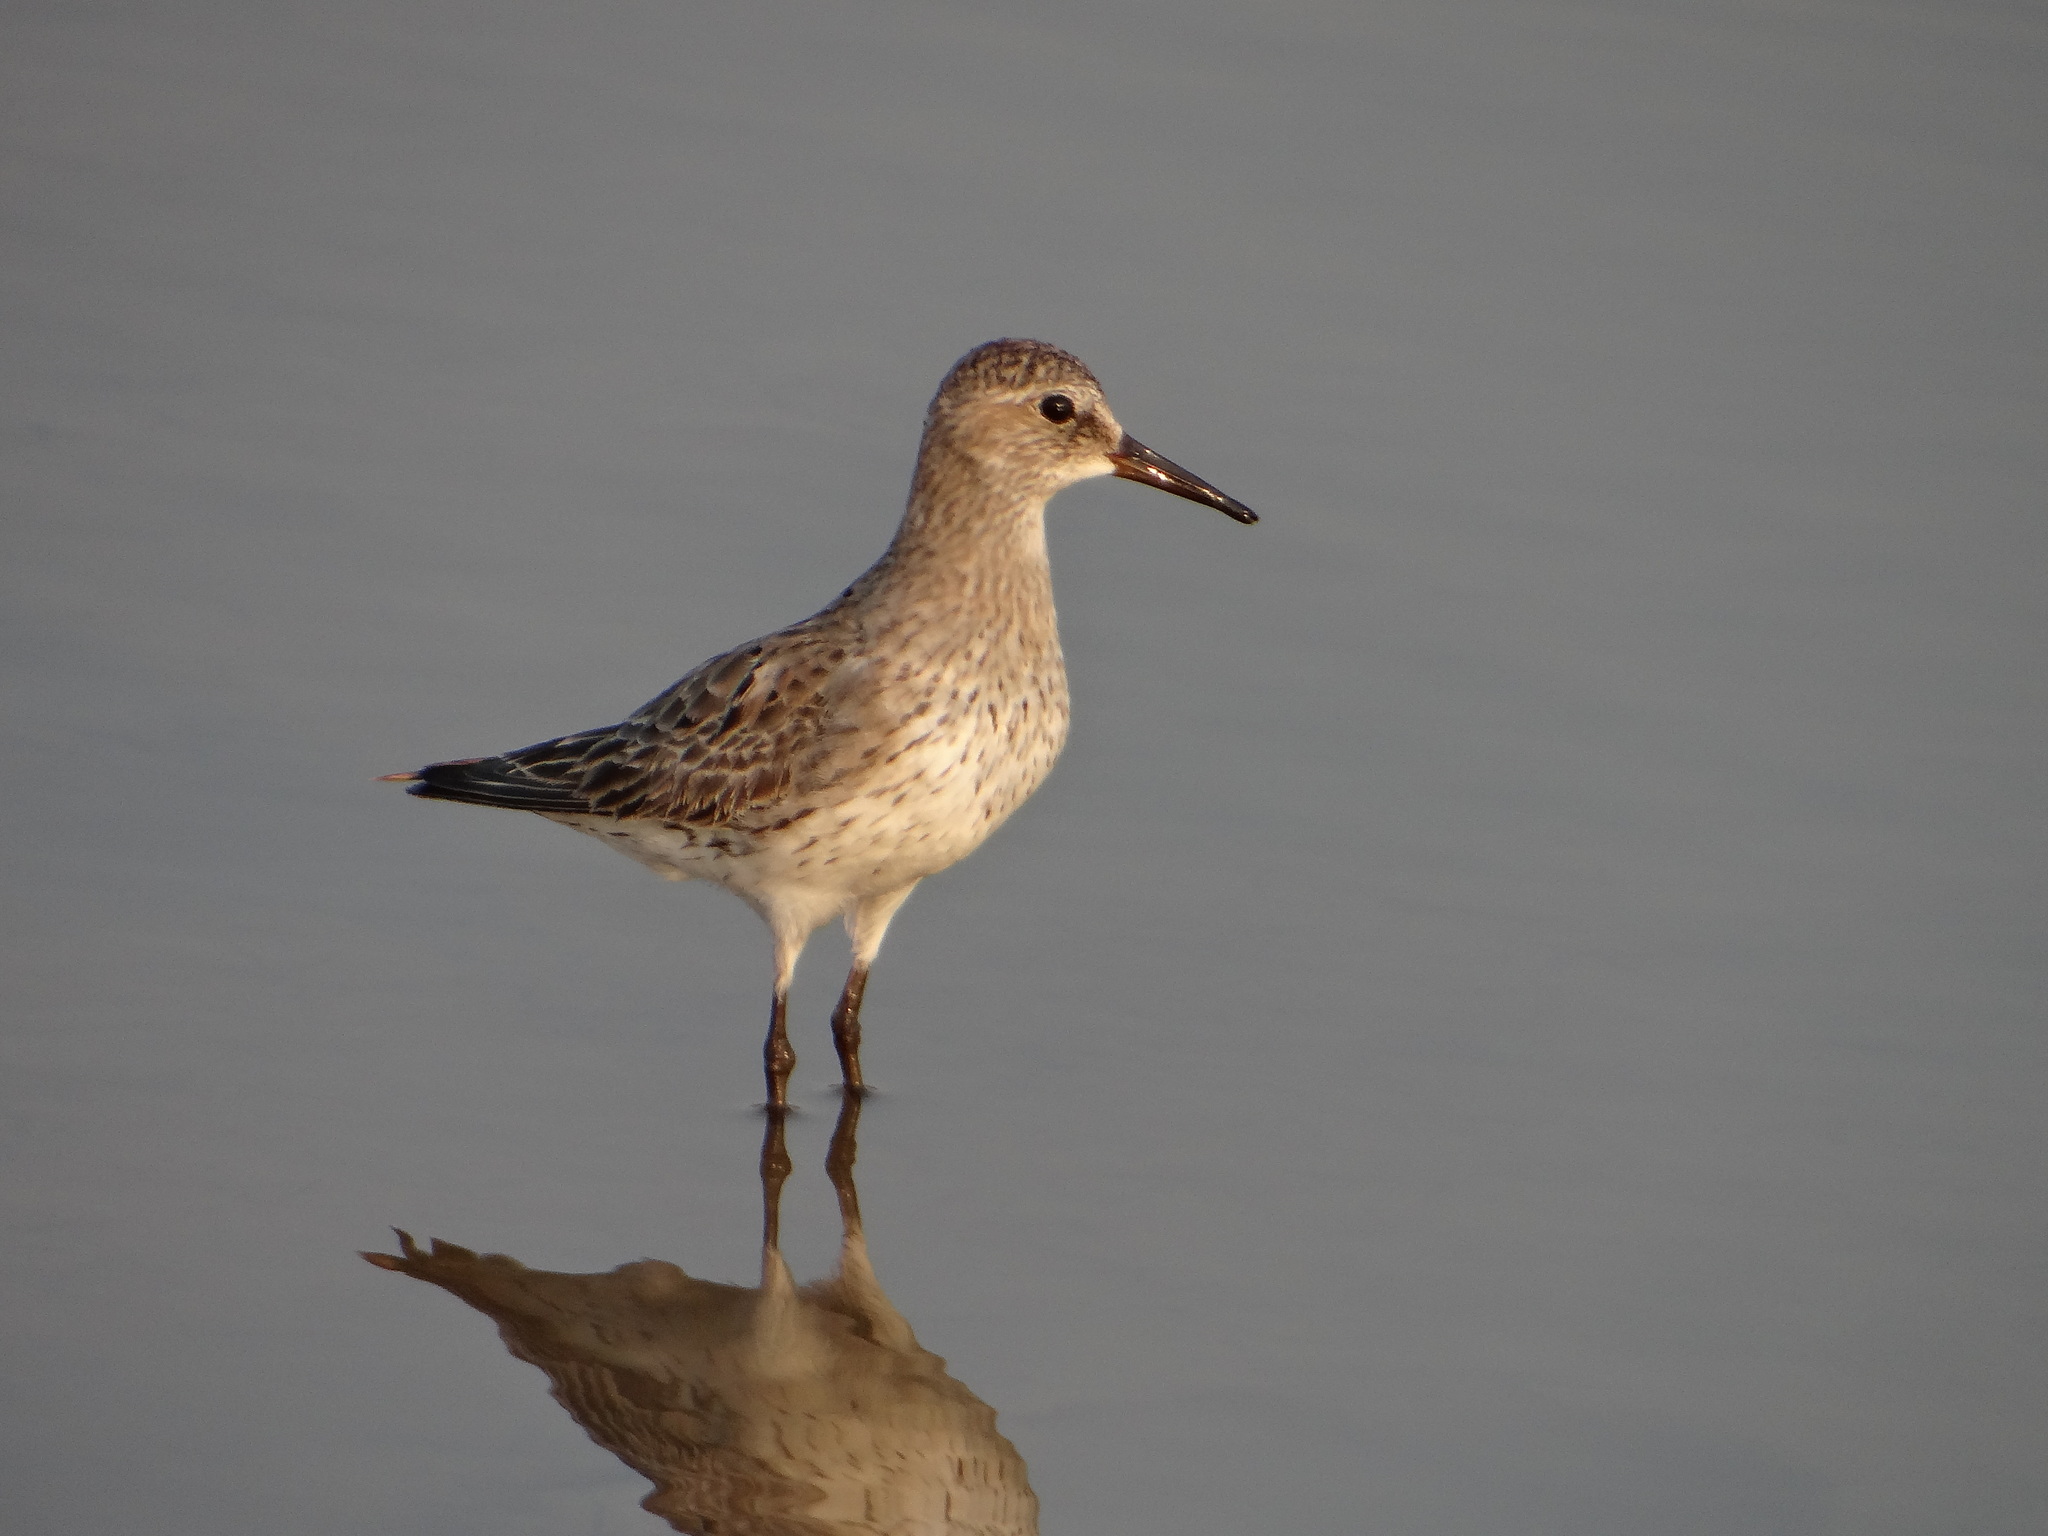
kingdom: Animalia
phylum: Chordata
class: Aves
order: Charadriiformes
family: Scolopacidae
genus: Calidris
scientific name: Calidris fuscicollis
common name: White-rumped sandpiper
